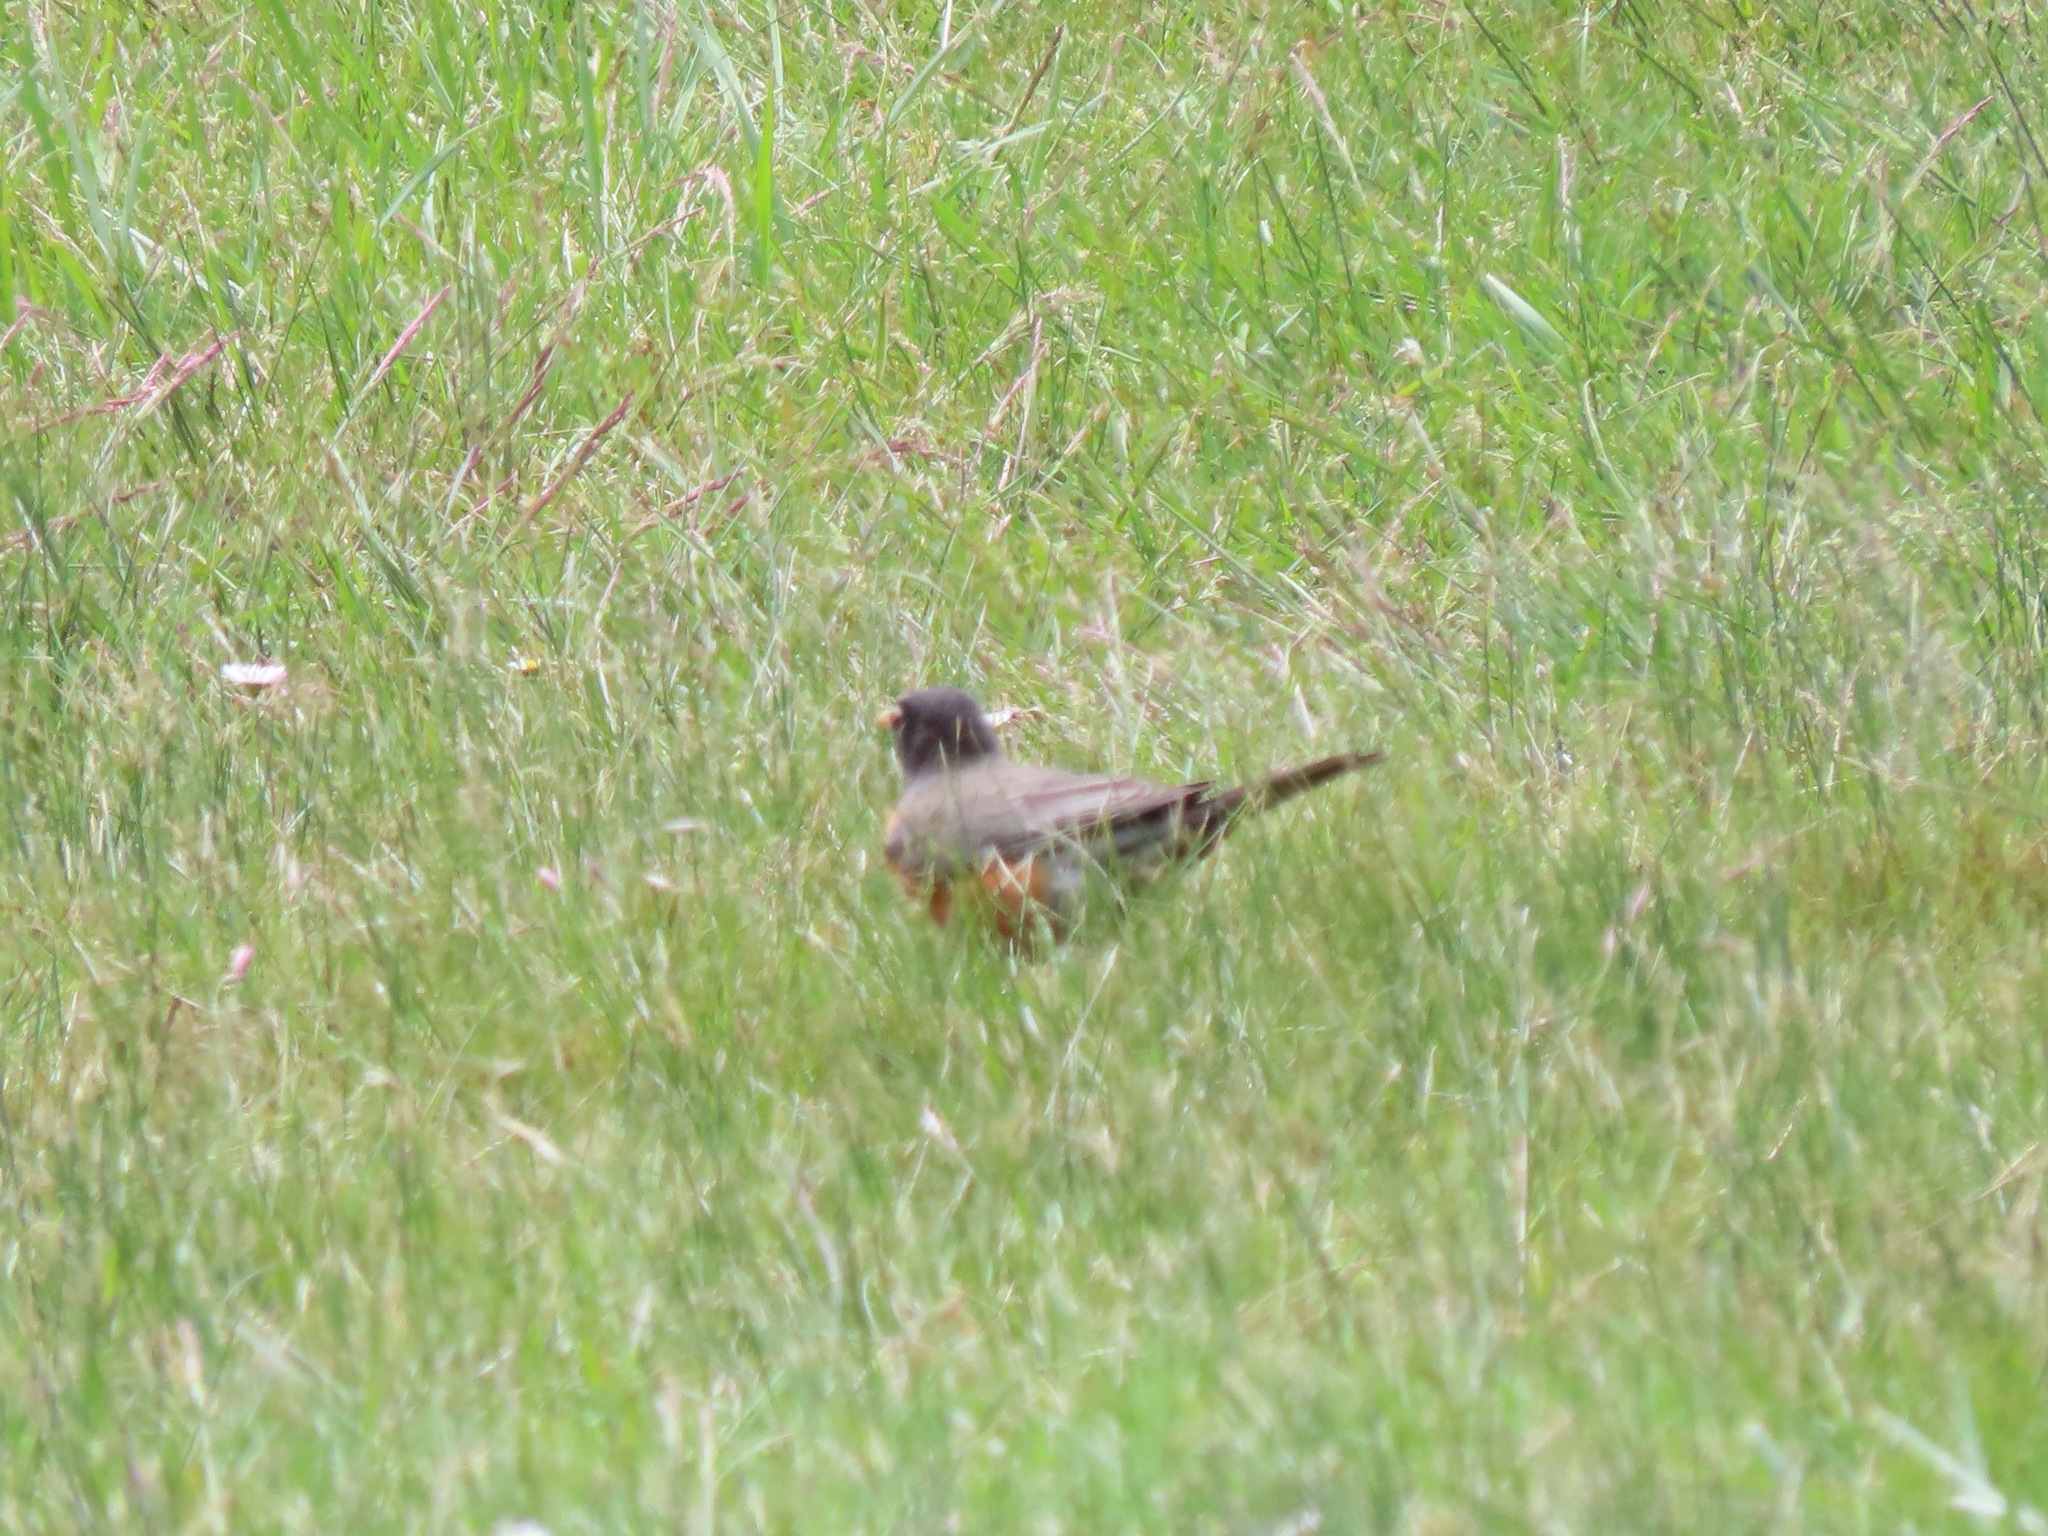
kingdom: Animalia
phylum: Chordata
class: Aves
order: Passeriformes
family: Turdidae
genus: Turdus
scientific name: Turdus migratorius
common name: American robin
